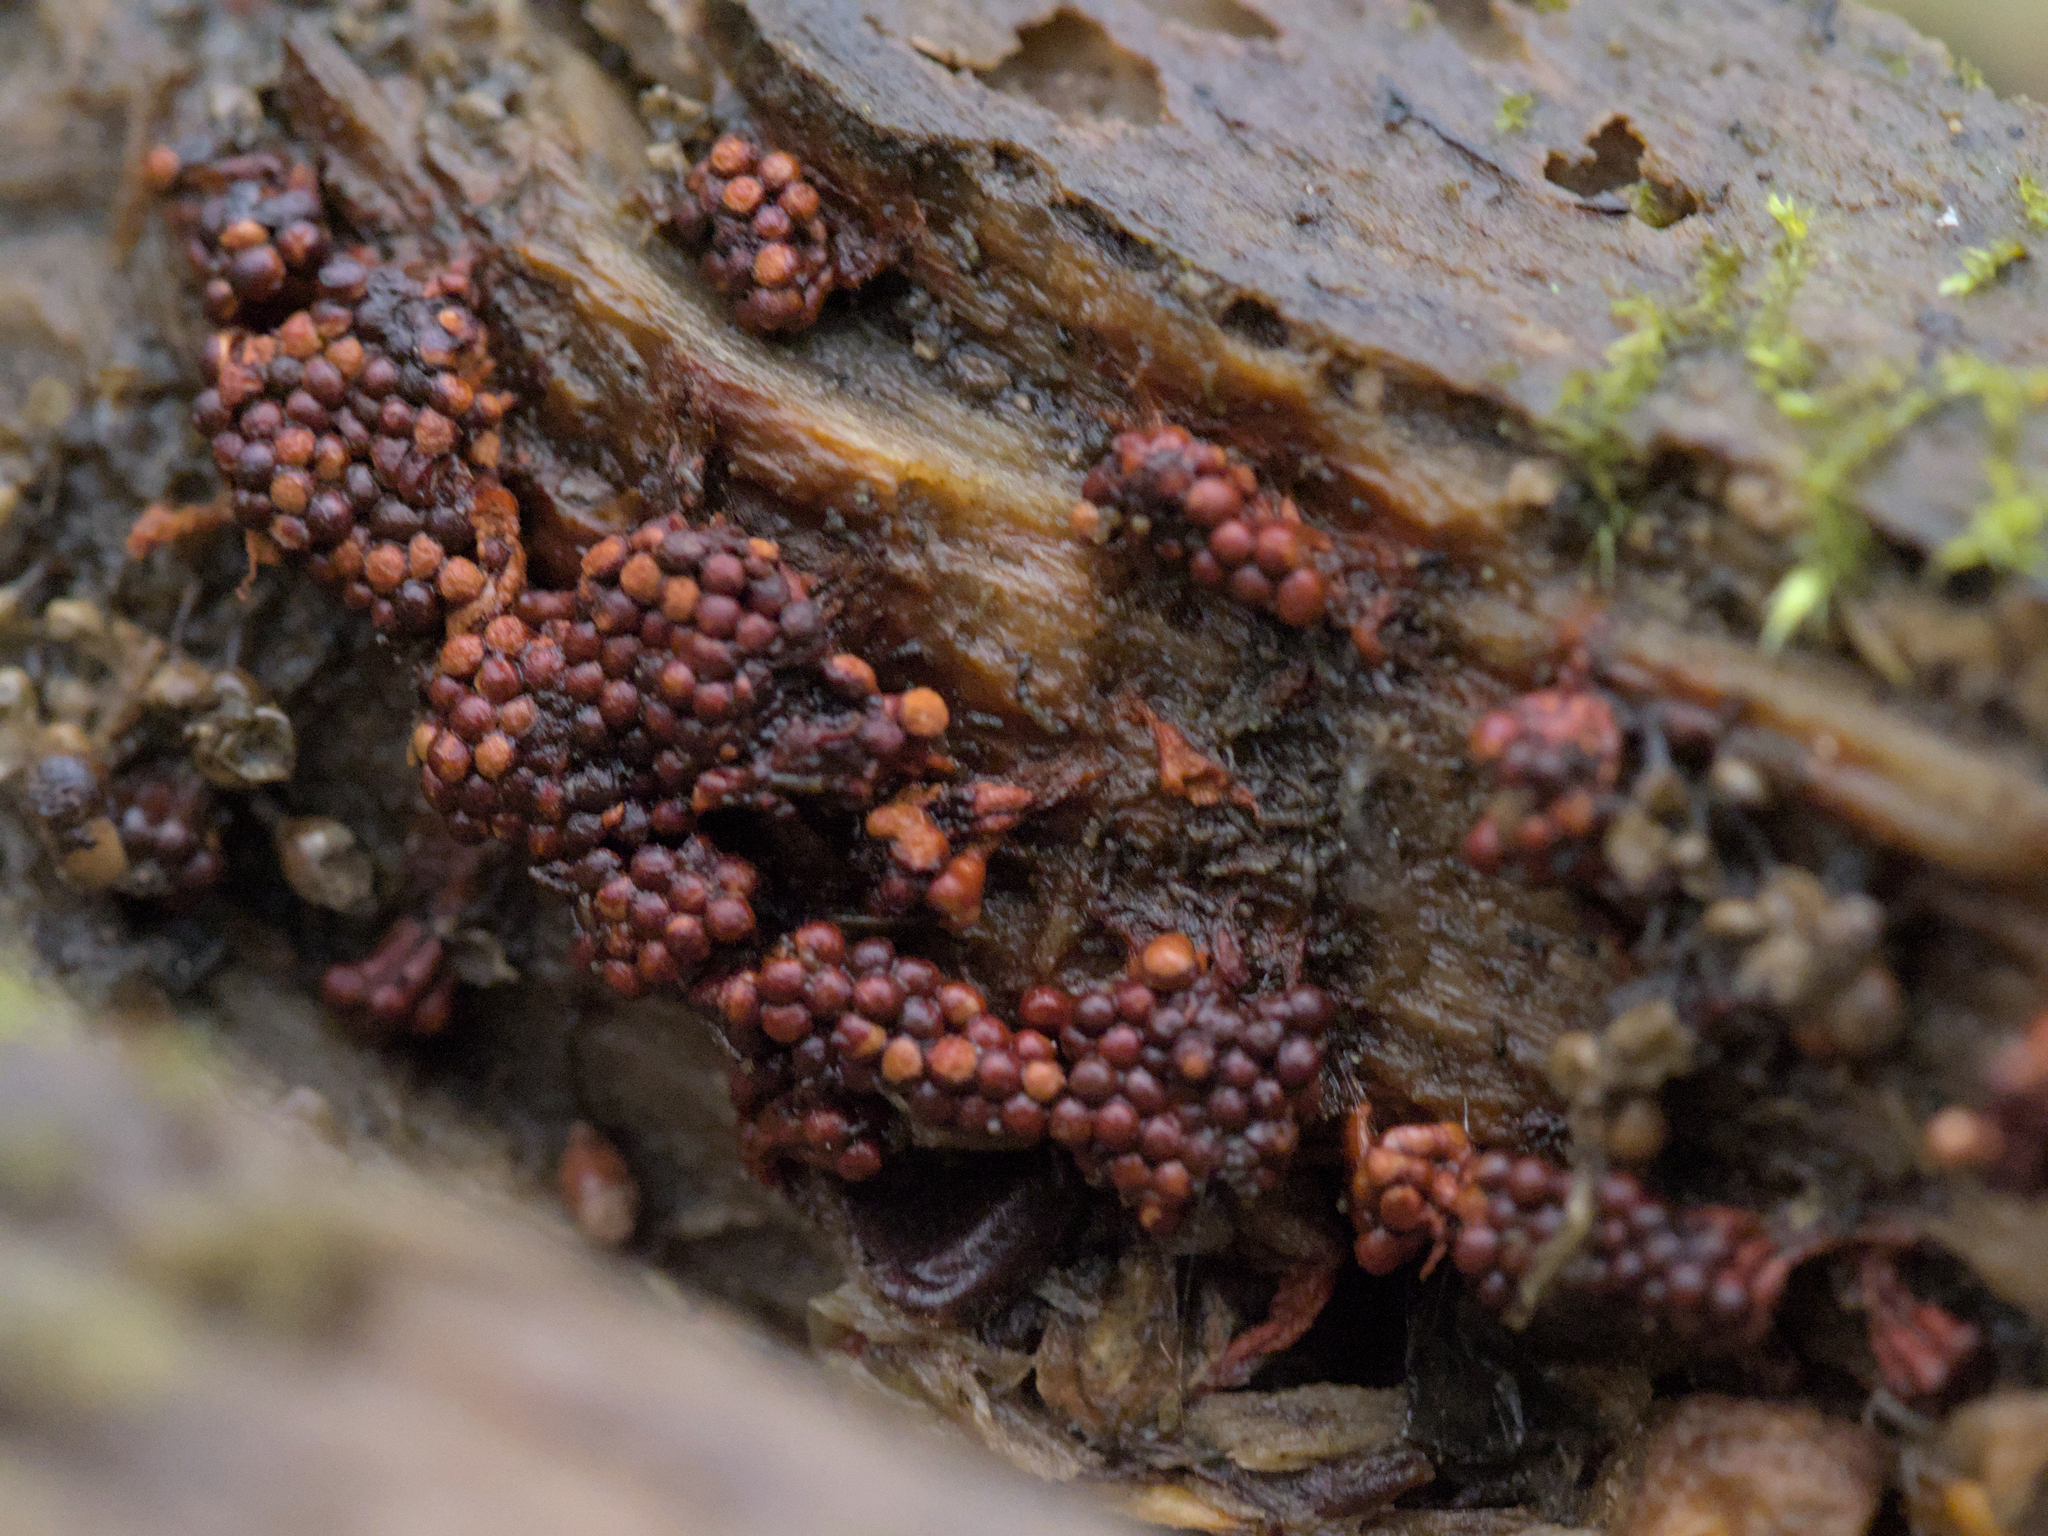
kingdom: Protozoa
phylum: Mycetozoa
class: Myxomycetes
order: Trichiales
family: Trichiaceae
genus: Metatrichia
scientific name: Metatrichia vesparia
